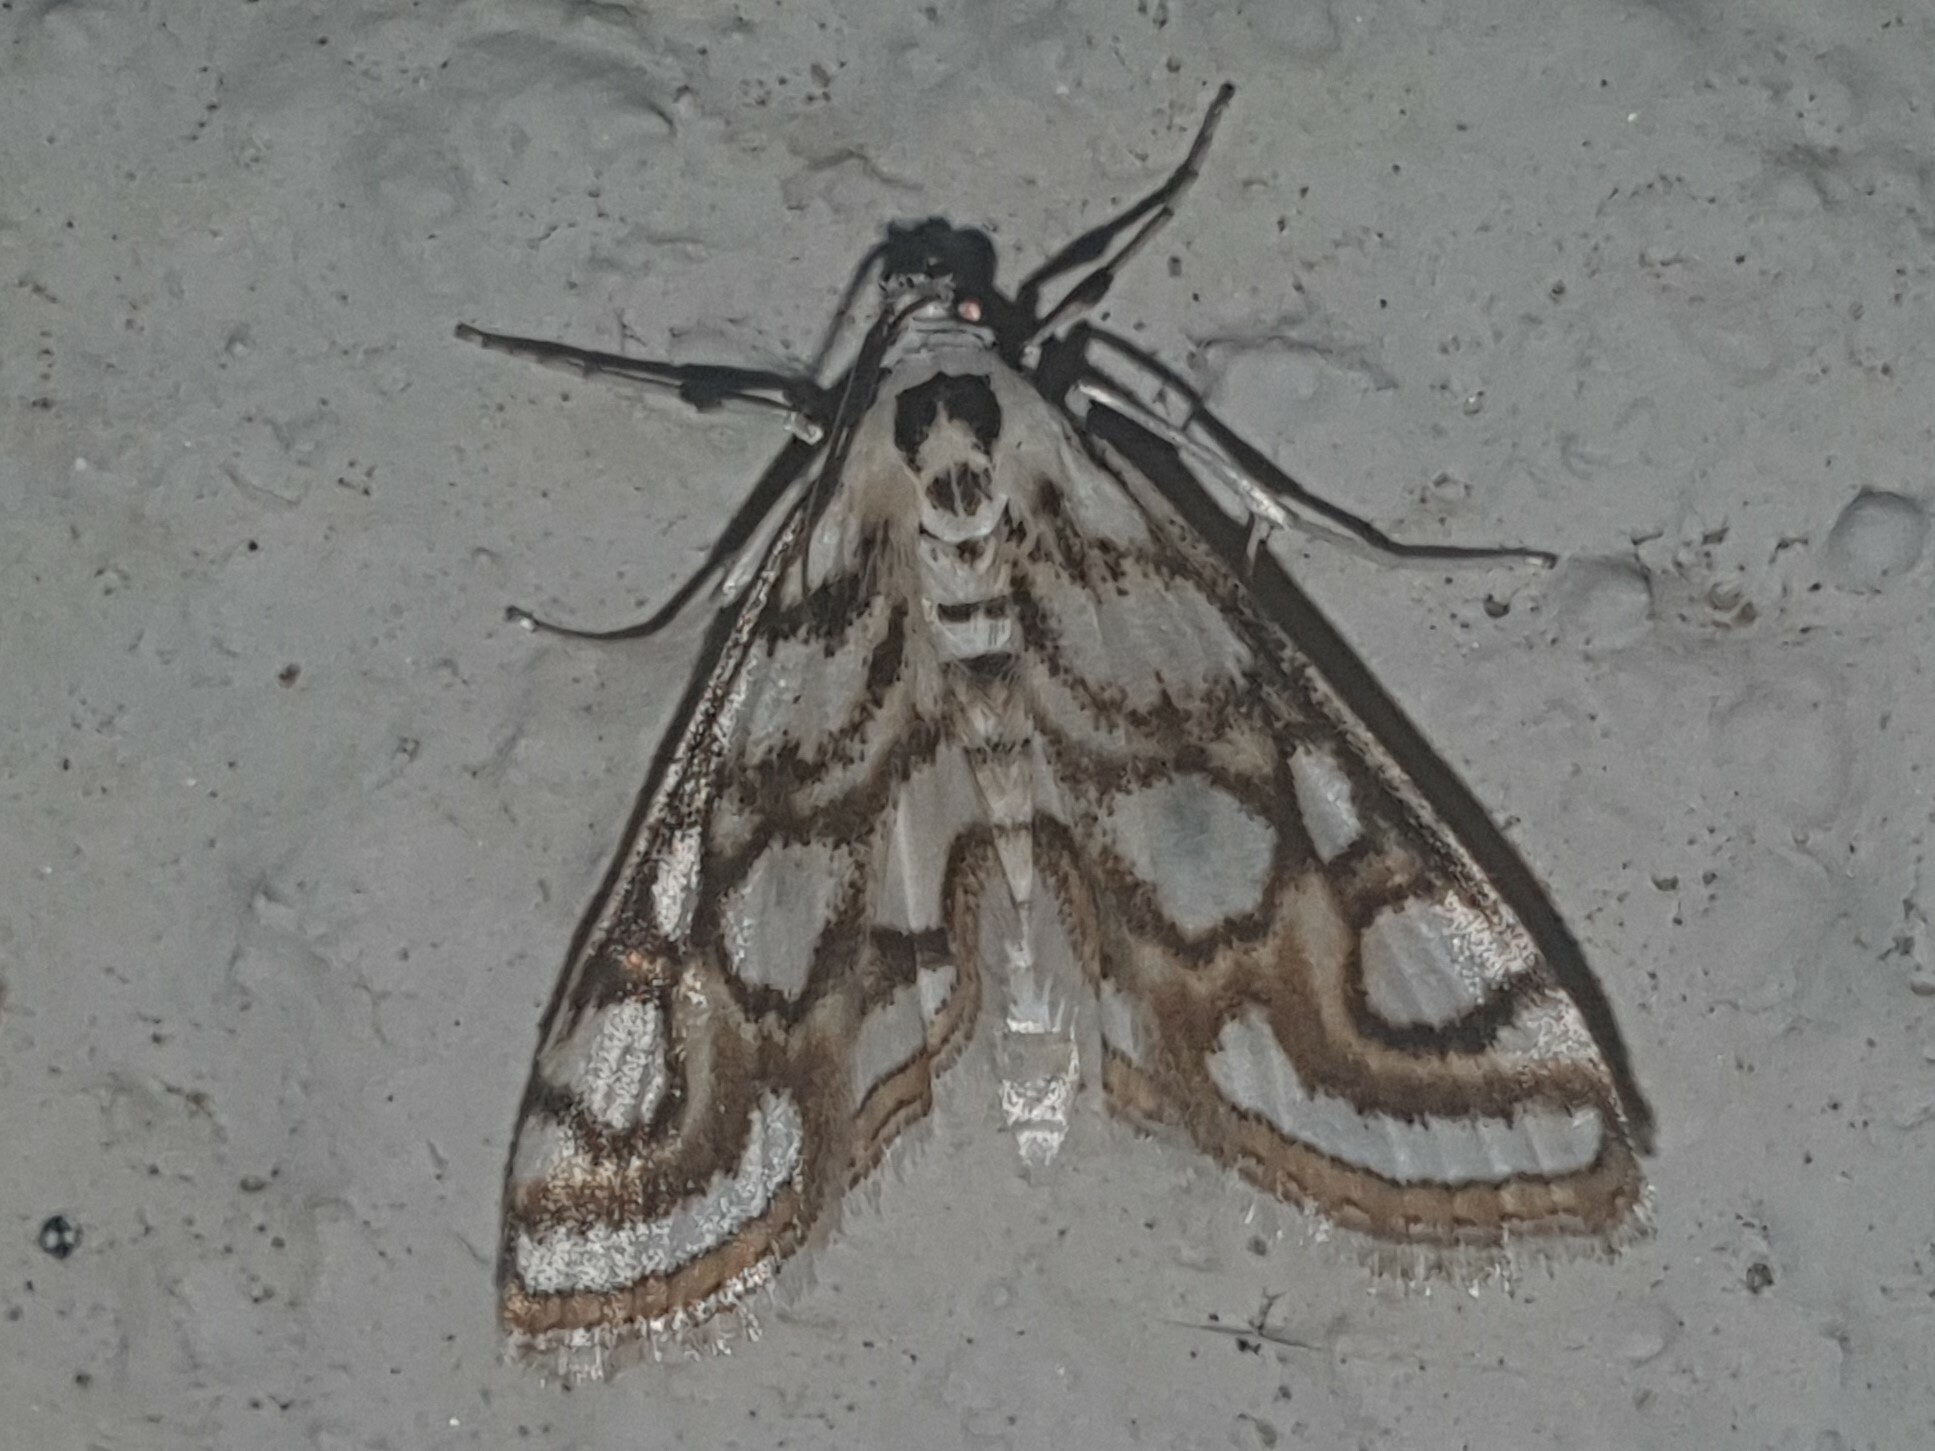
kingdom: Animalia
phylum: Arthropoda
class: Insecta
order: Lepidoptera
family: Crambidae
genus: Nymphula
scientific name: Nymphula nitidulata
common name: Beautiful china mark
